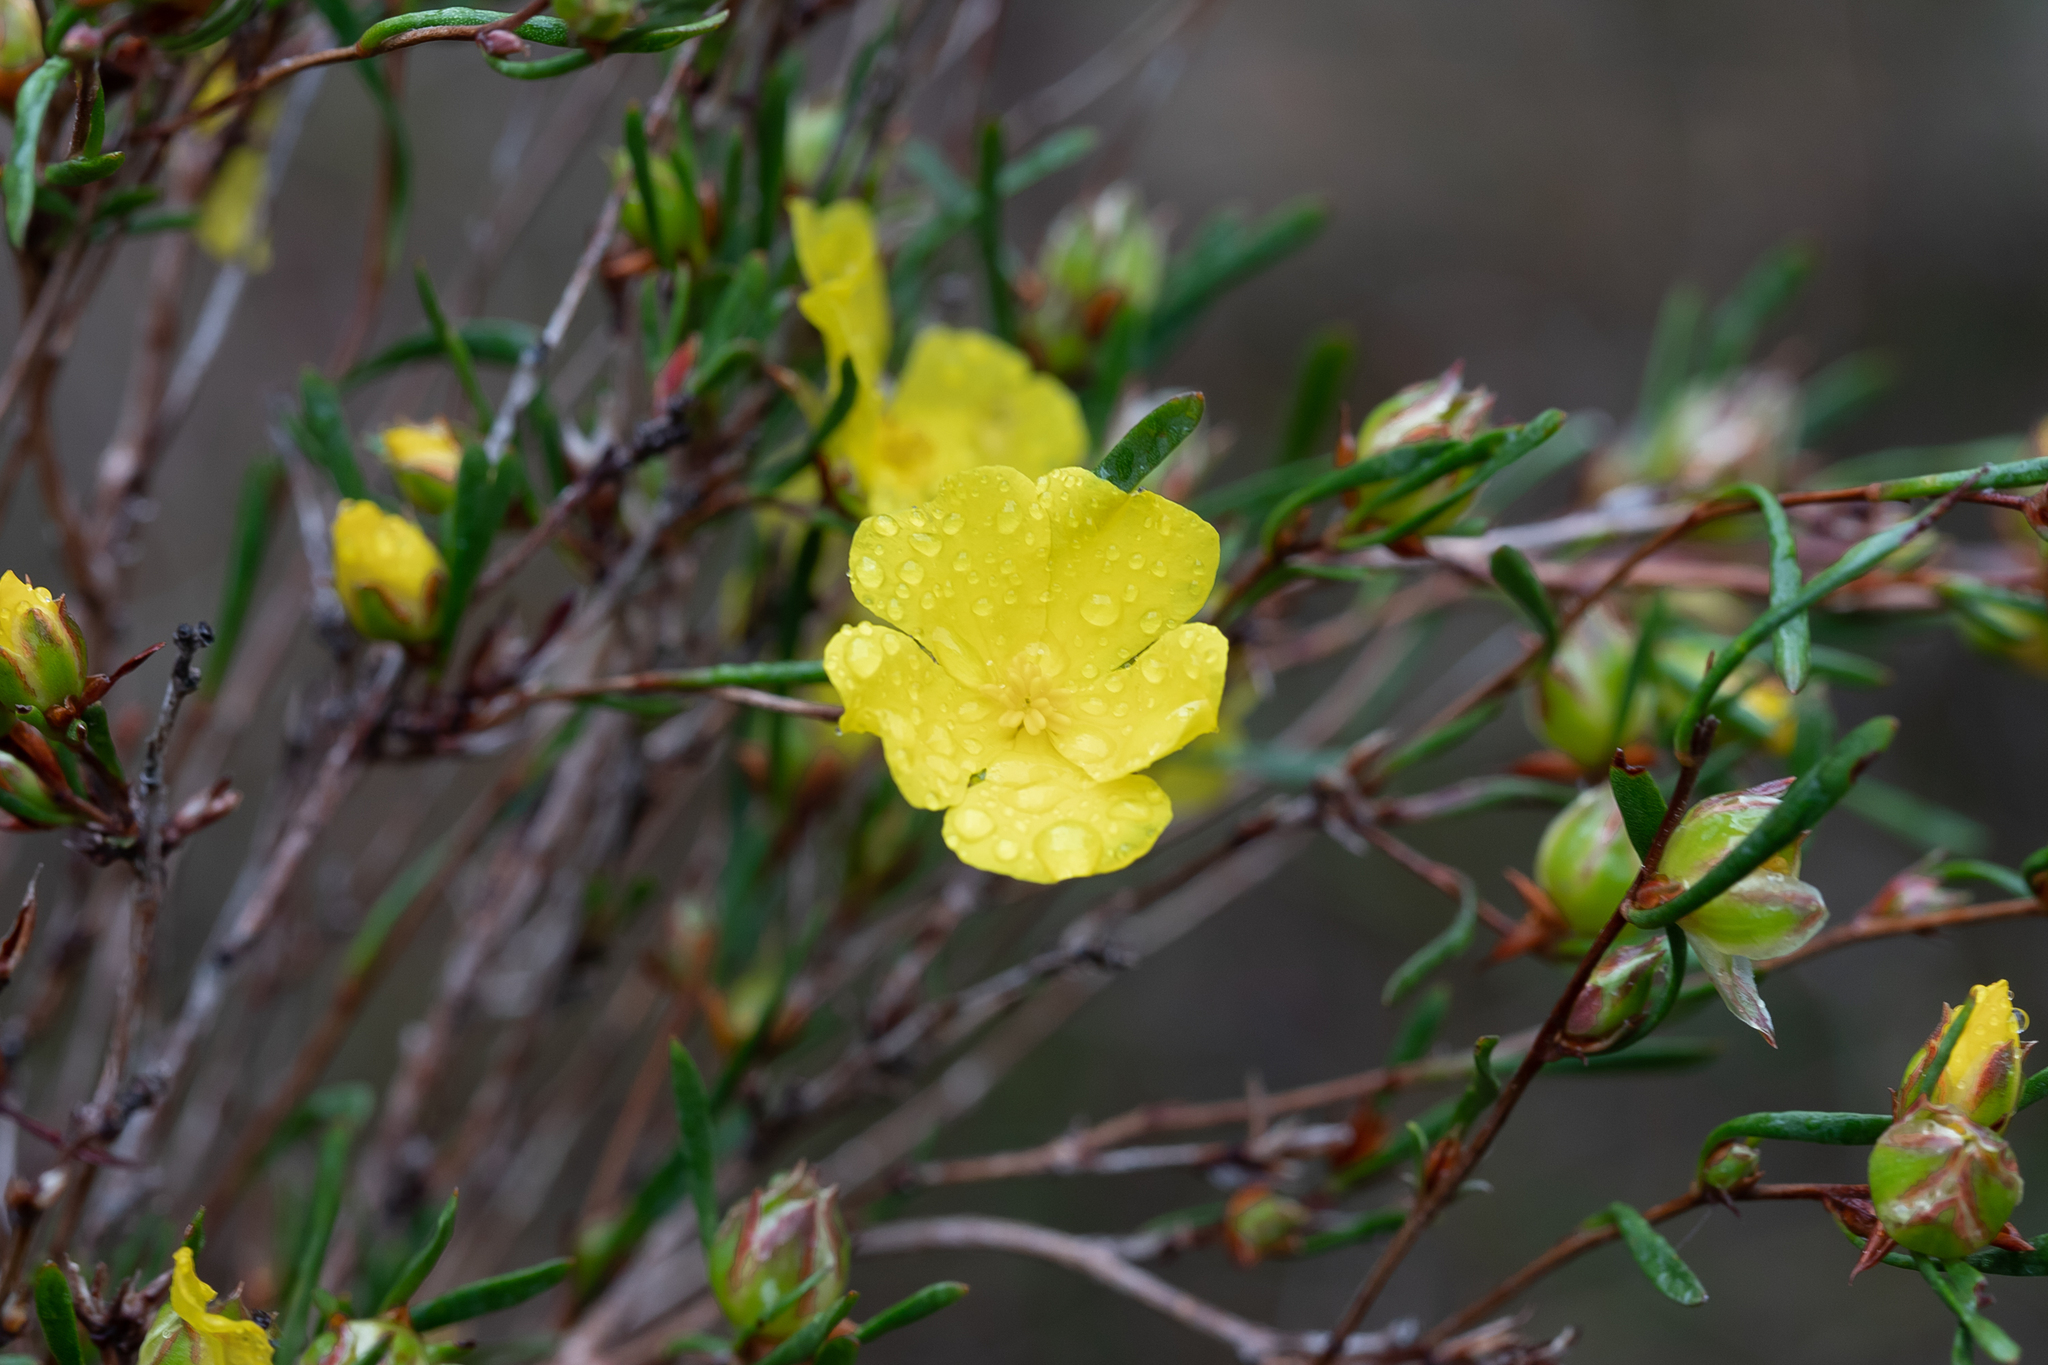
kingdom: Plantae
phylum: Tracheophyta
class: Magnoliopsida
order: Dilleniales
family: Dilleniaceae
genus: Hibbertia
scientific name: Hibbertia virgata
